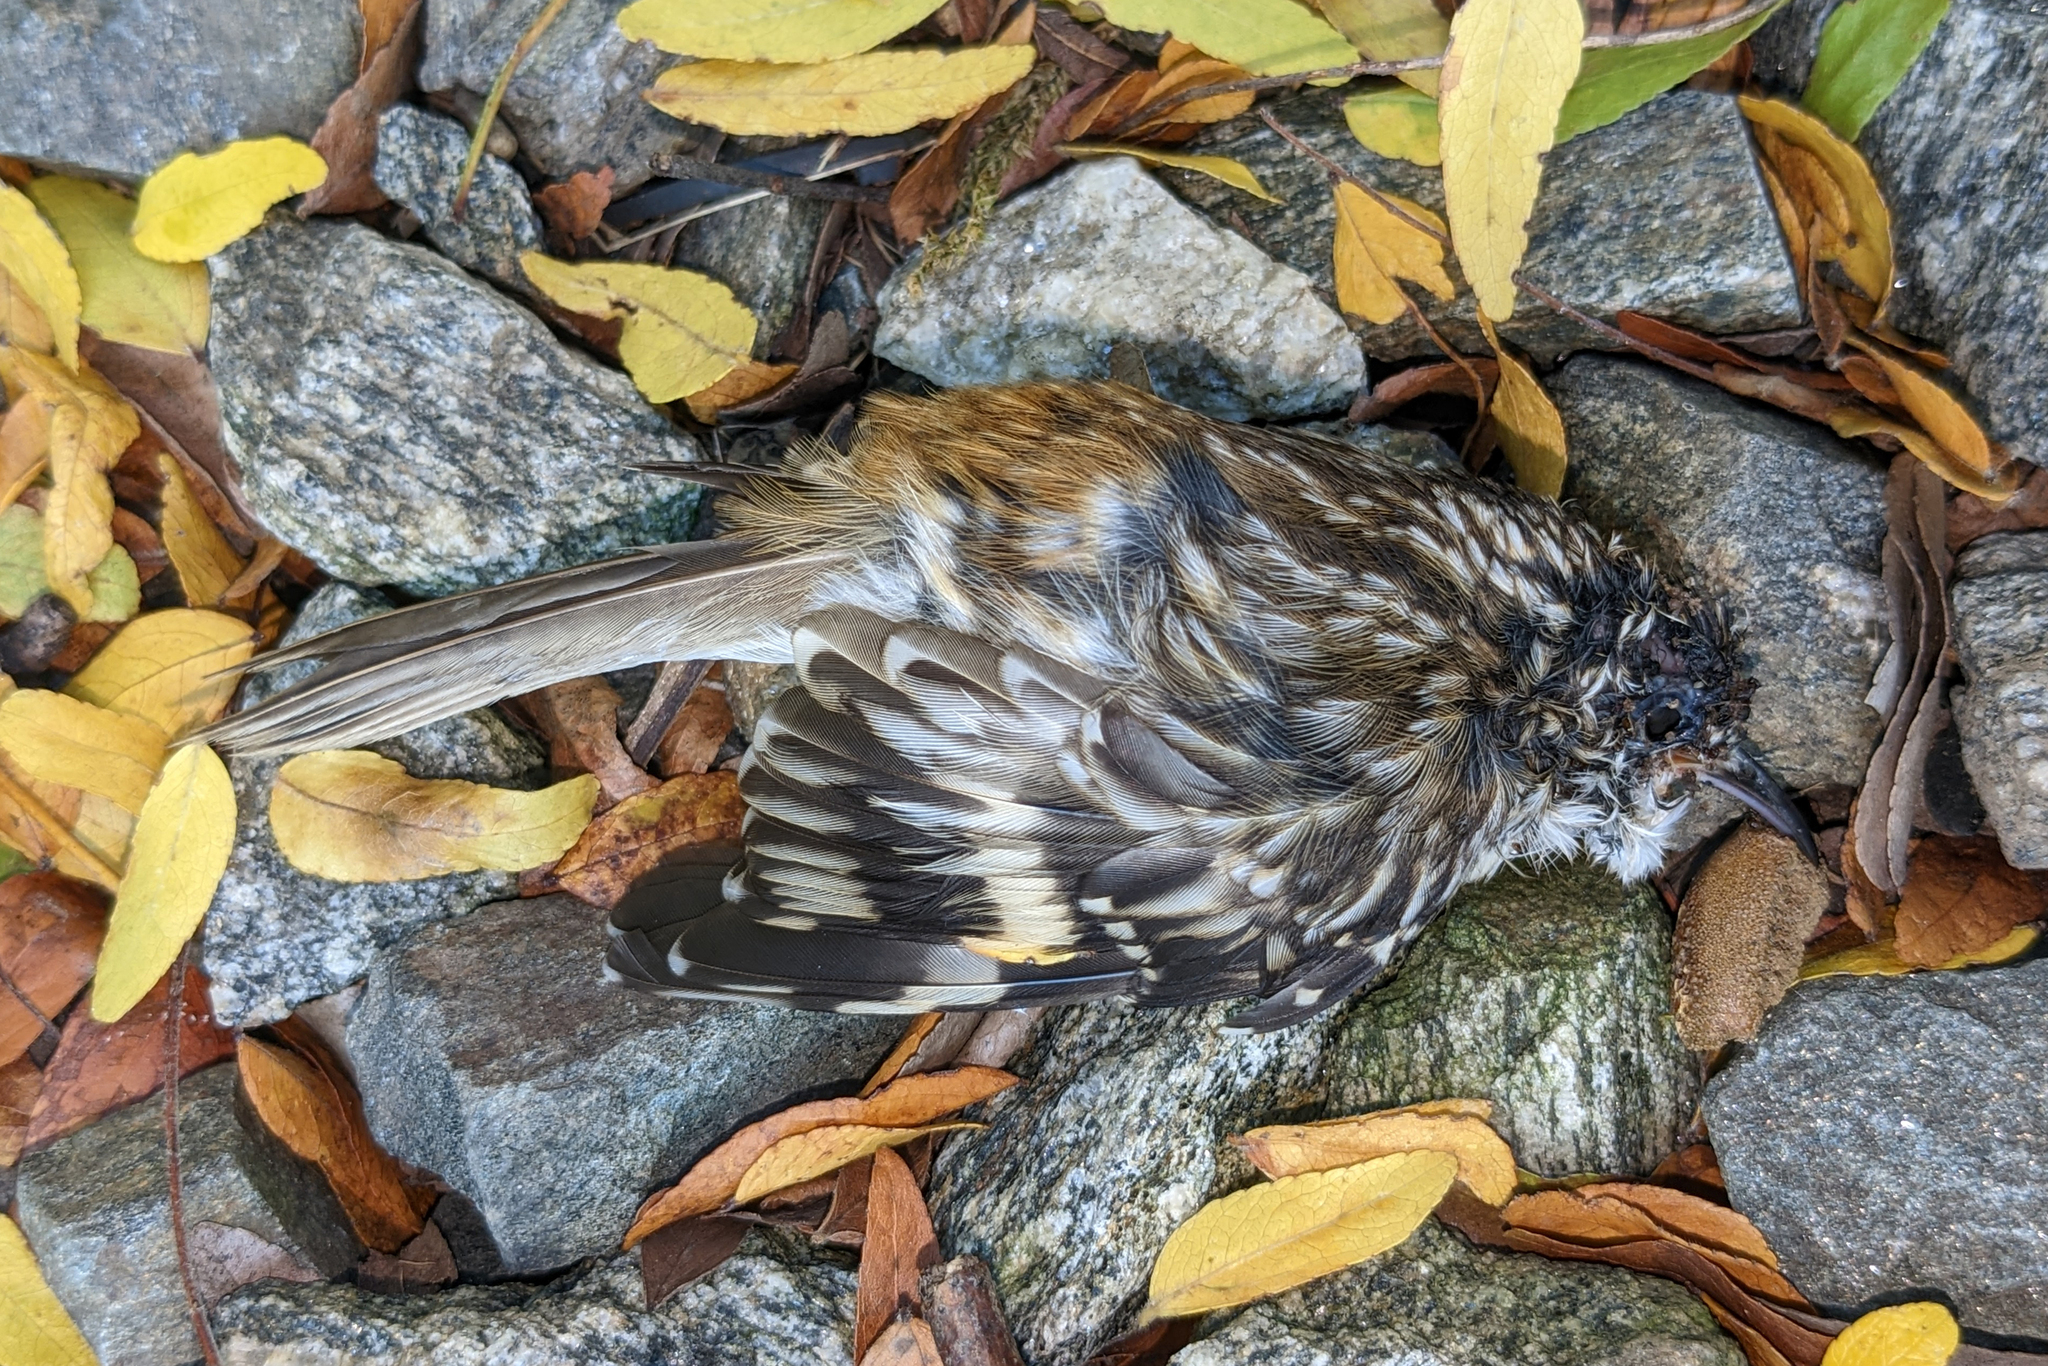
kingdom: Animalia
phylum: Chordata
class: Aves
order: Passeriformes
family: Certhiidae
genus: Certhia
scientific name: Certhia americana
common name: Brown creeper
